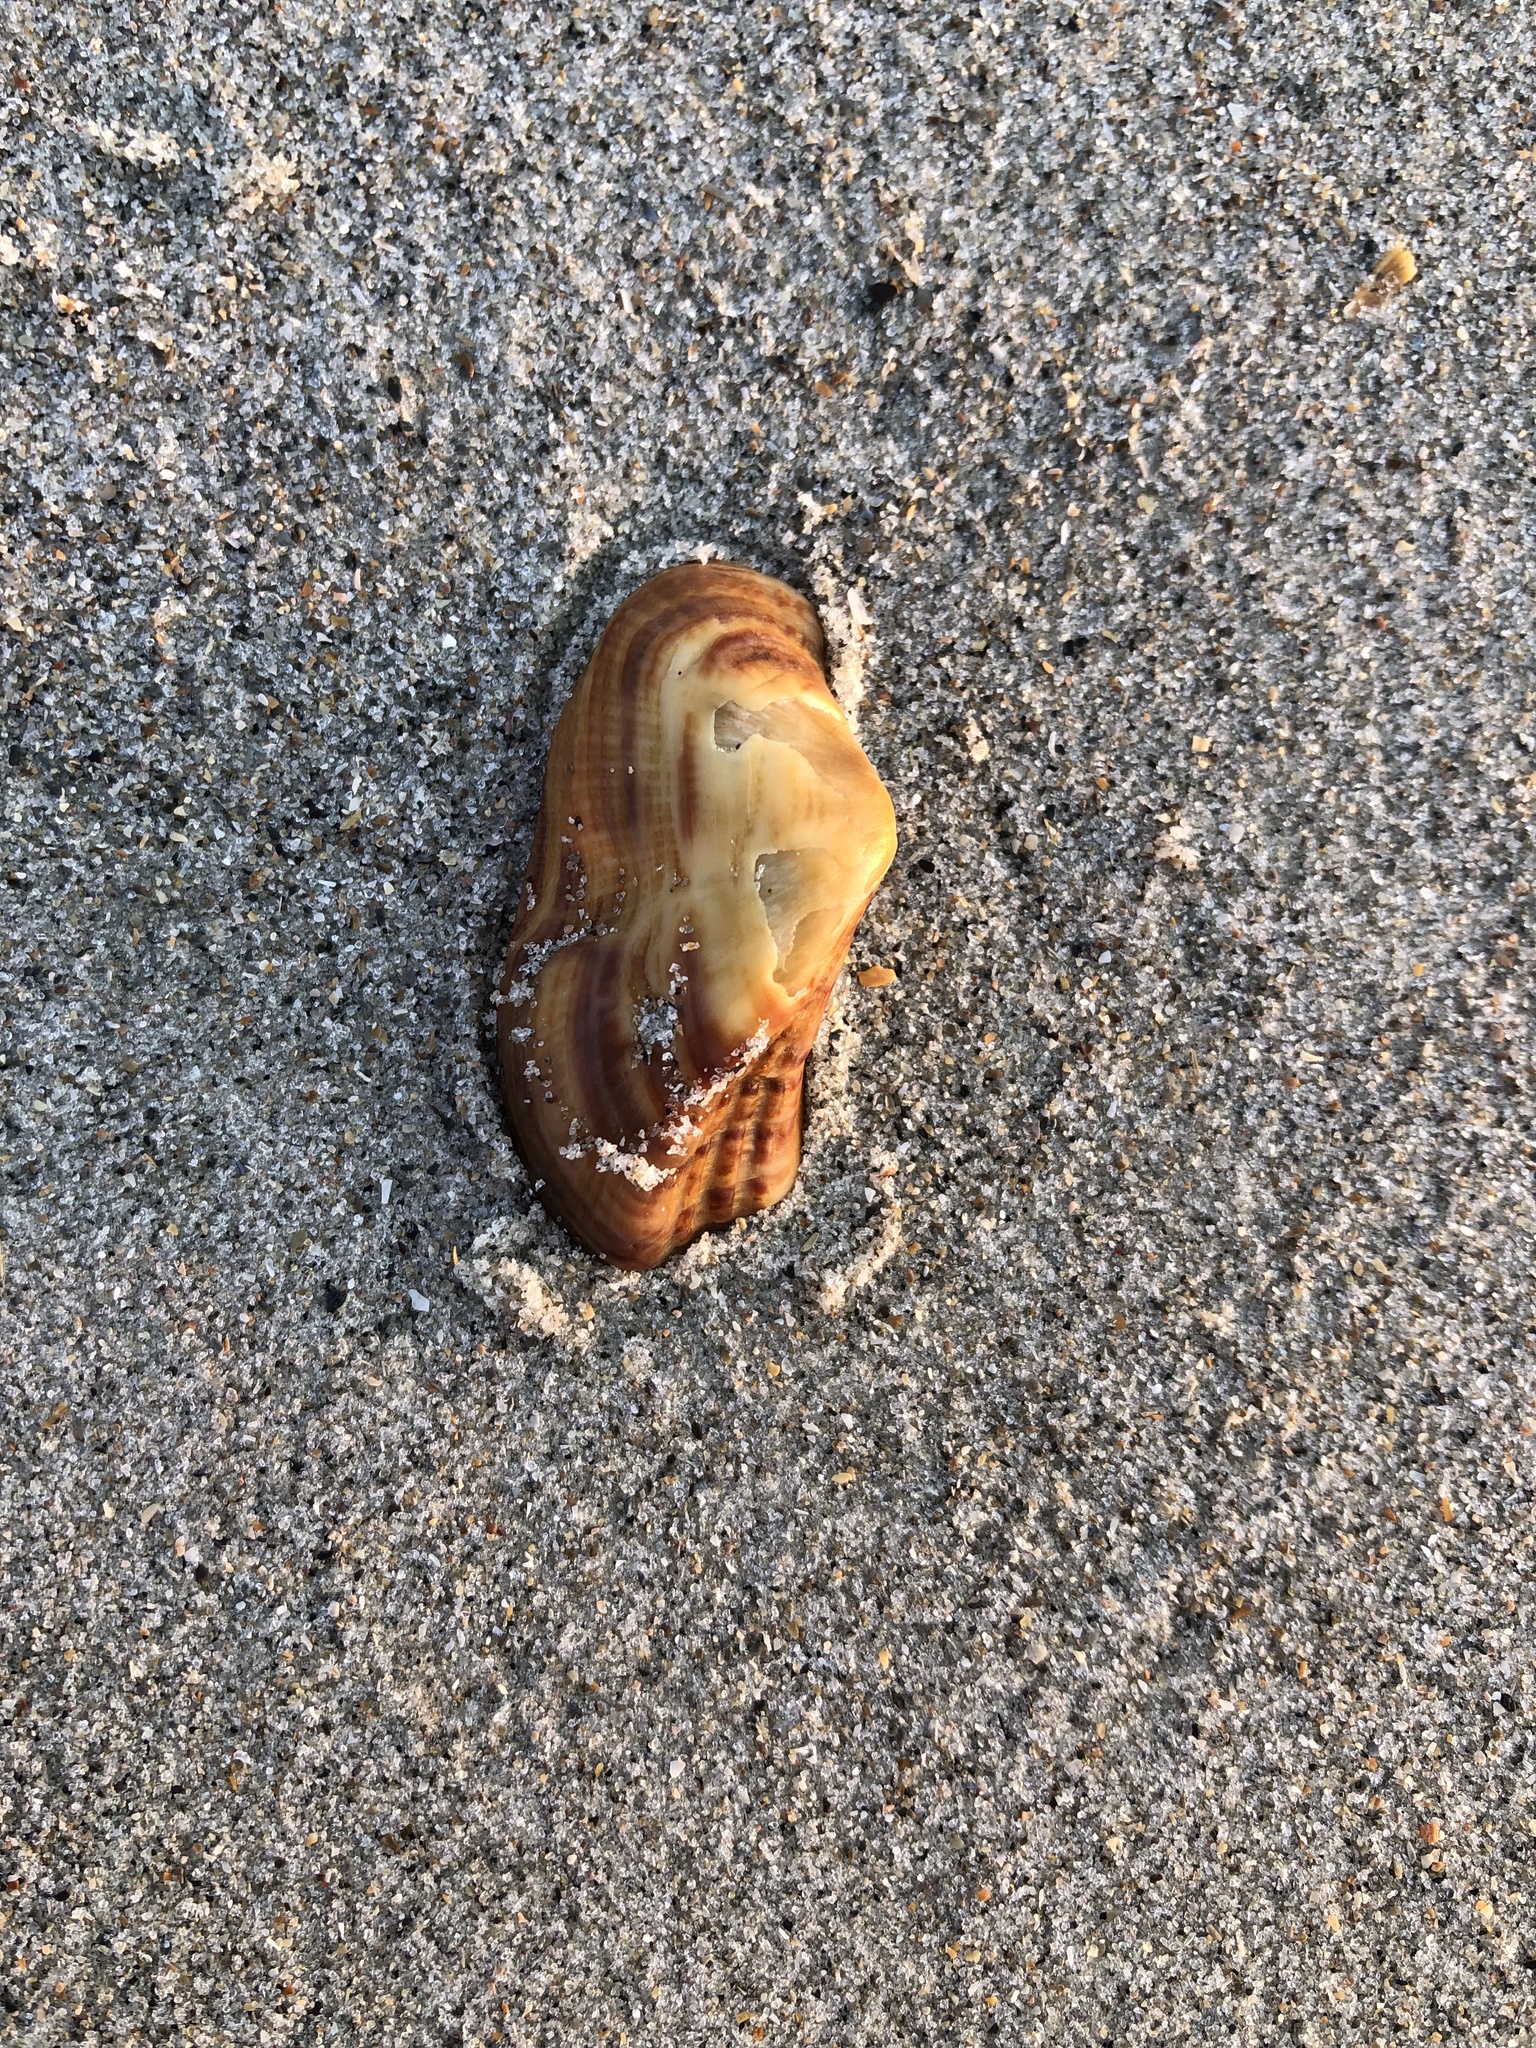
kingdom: Animalia
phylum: Mollusca
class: Bivalvia
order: Arcida
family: Arcidae
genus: Lamarcka
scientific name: Lamarcka imbricata
